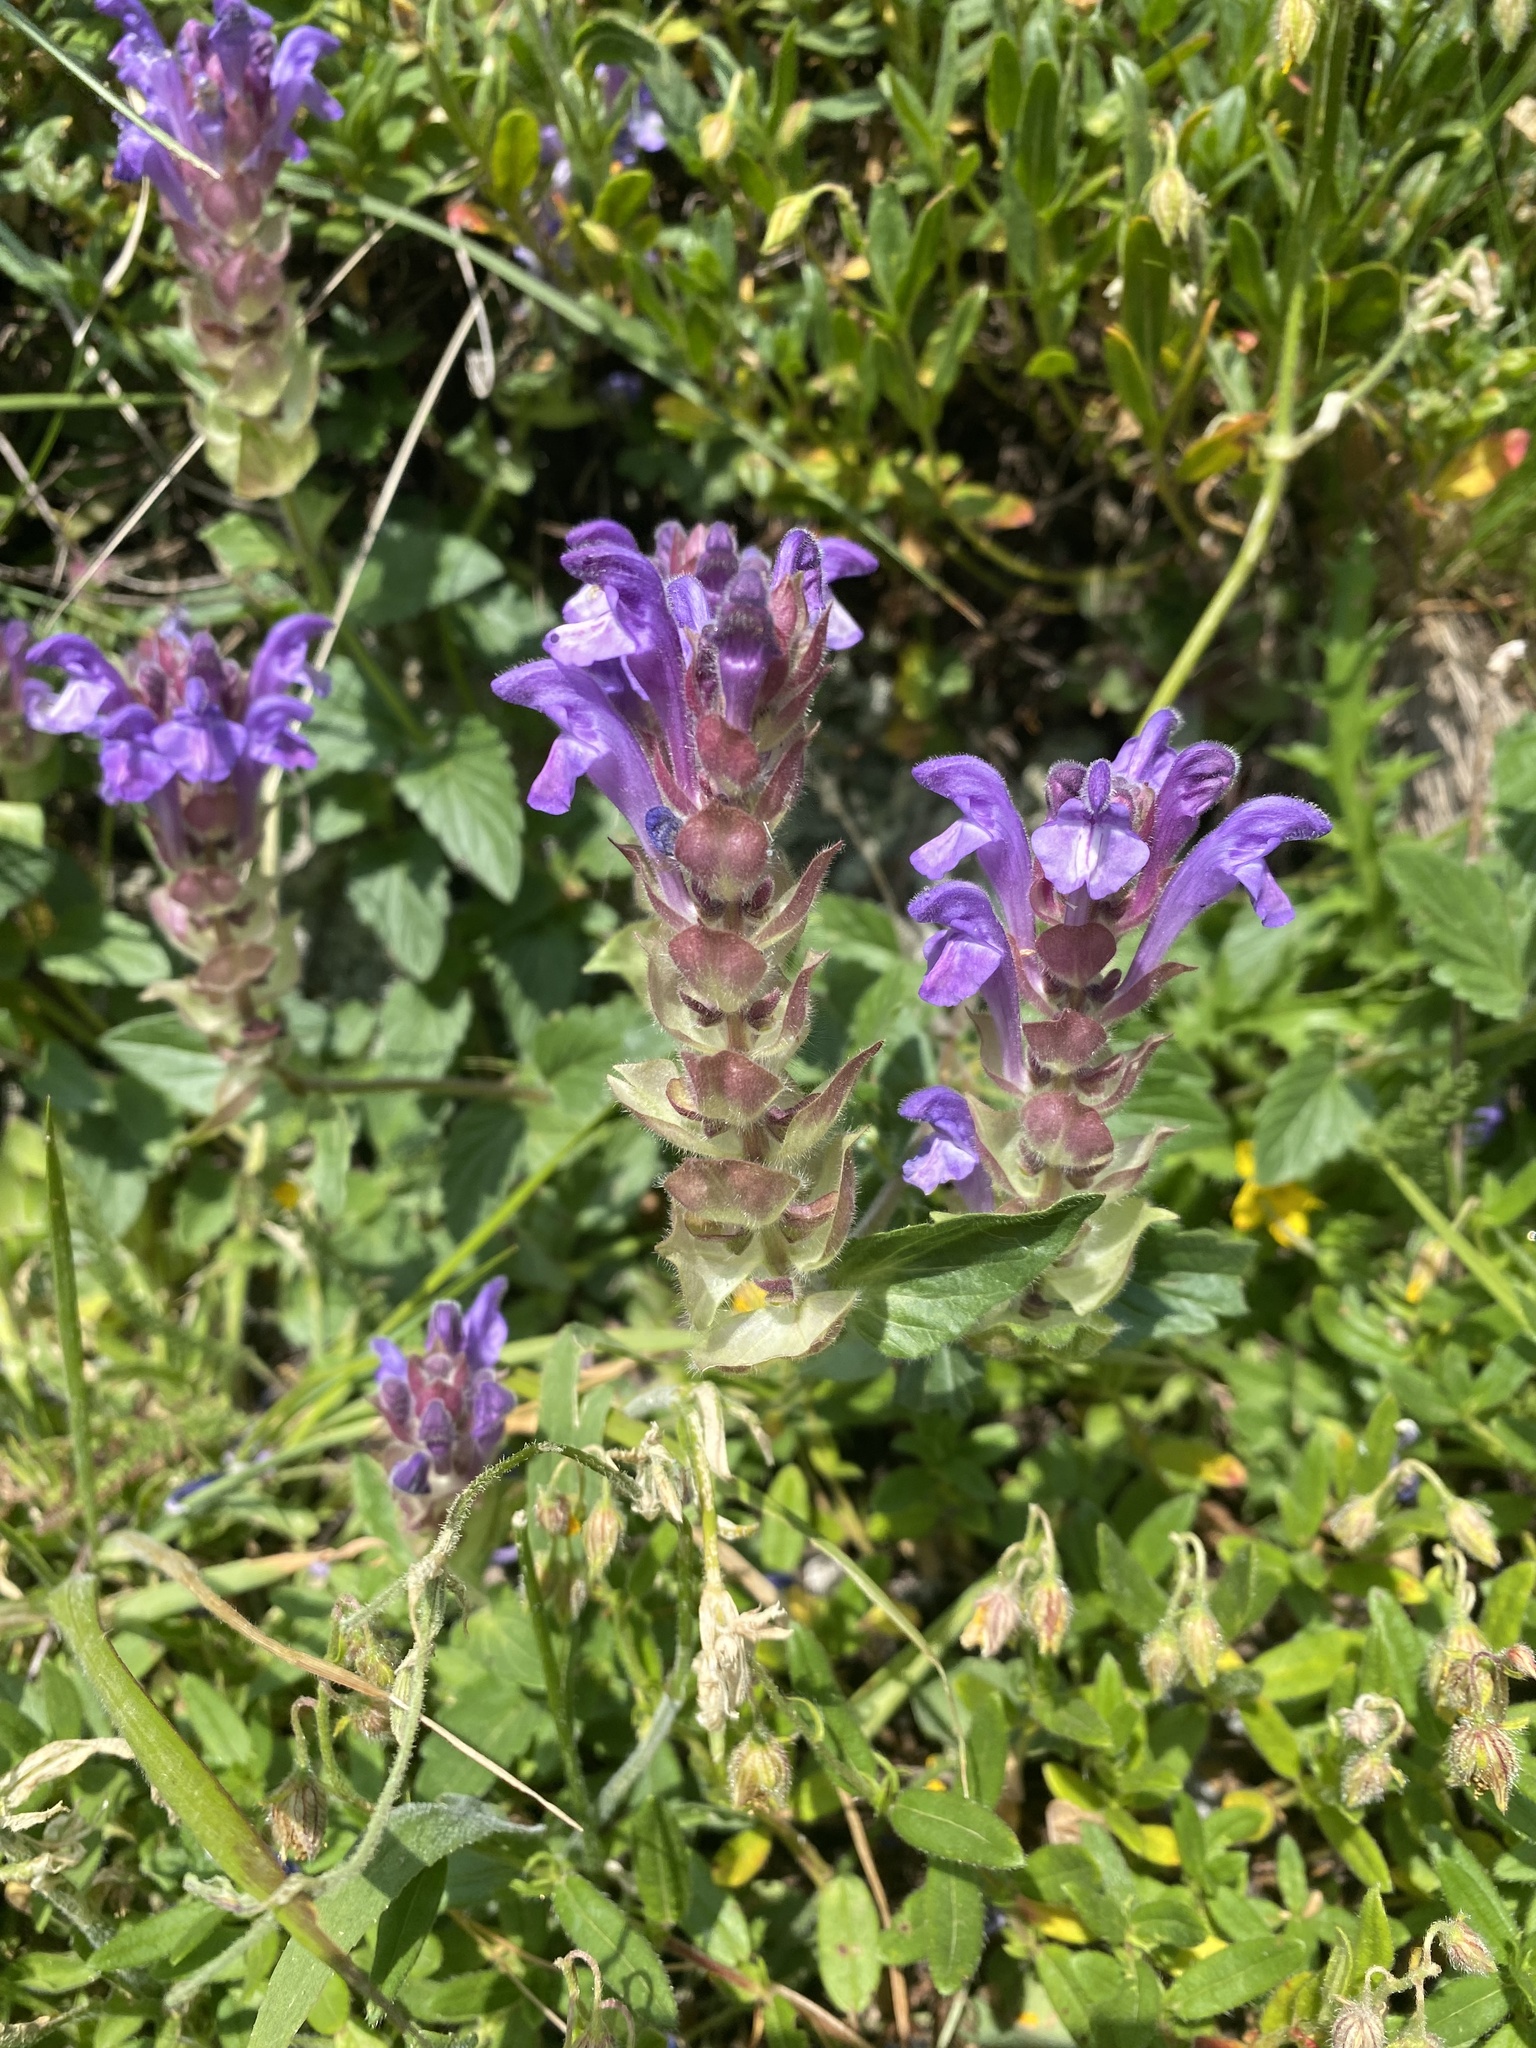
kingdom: Plantae
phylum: Tracheophyta
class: Magnoliopsida
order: Lamiales
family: Lamiaceae
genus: Scutellaria
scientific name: Scutellaria alpina
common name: Alpine scullcap
